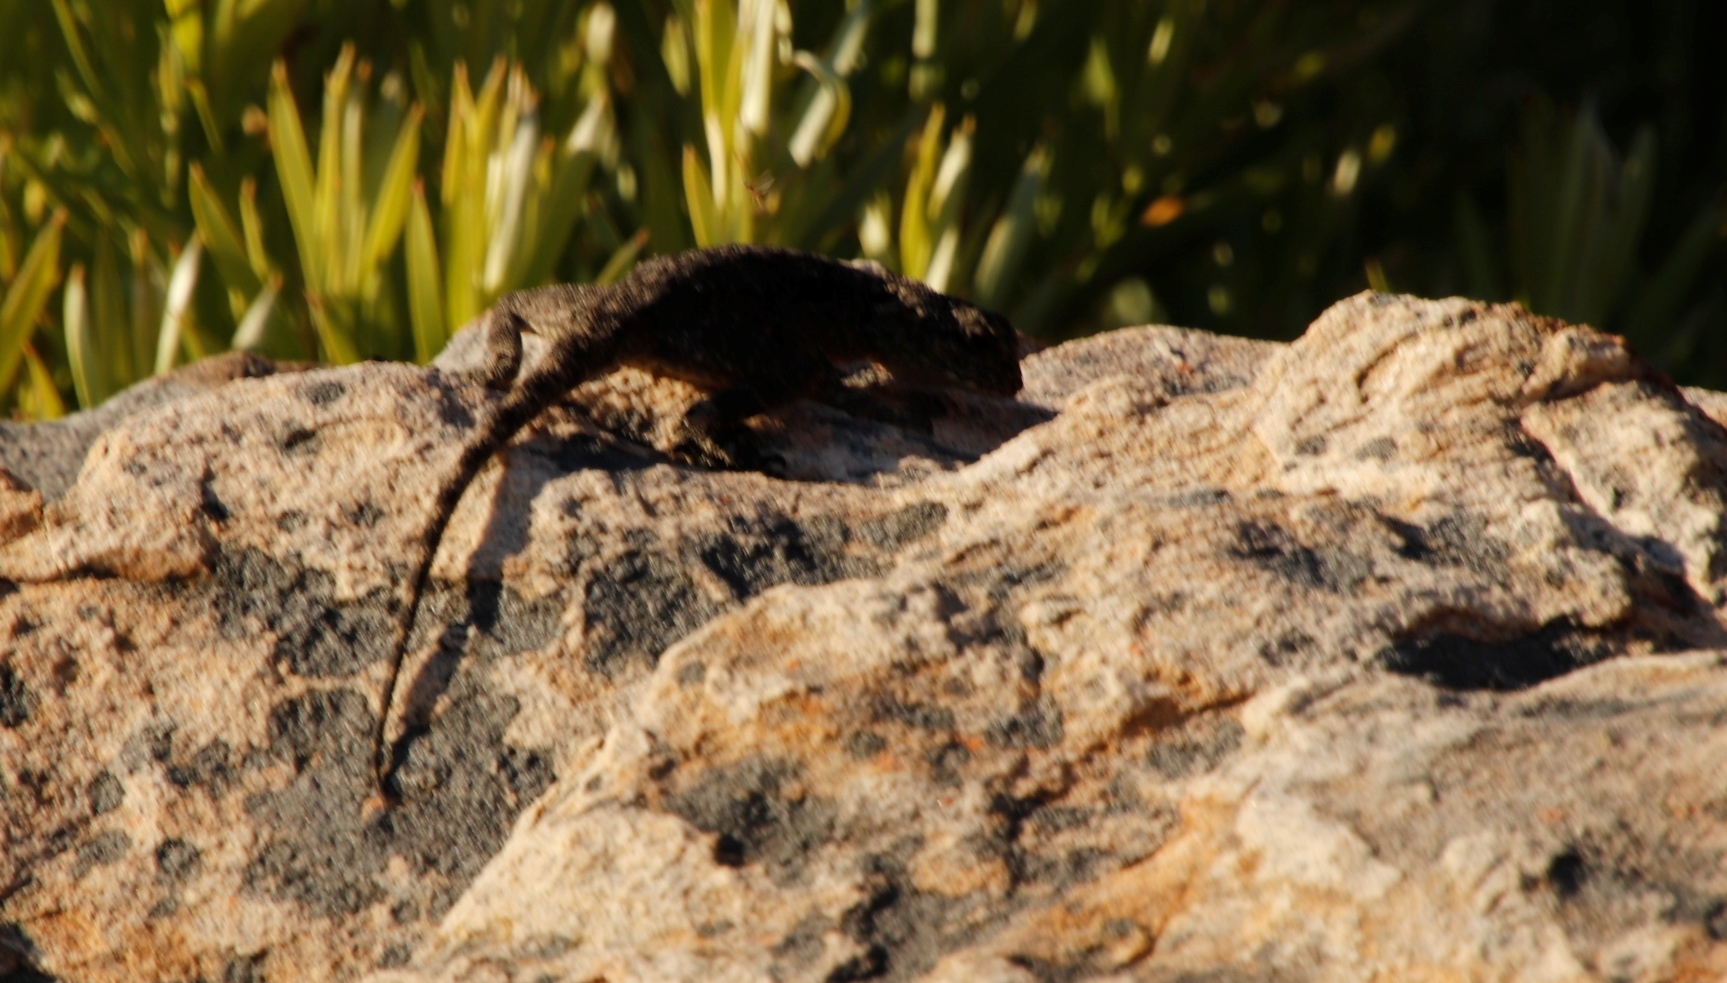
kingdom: Animalia
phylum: Chordata
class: Squamata
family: Agamidae
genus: Agama
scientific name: Agama atra
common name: Southern african rock agama
